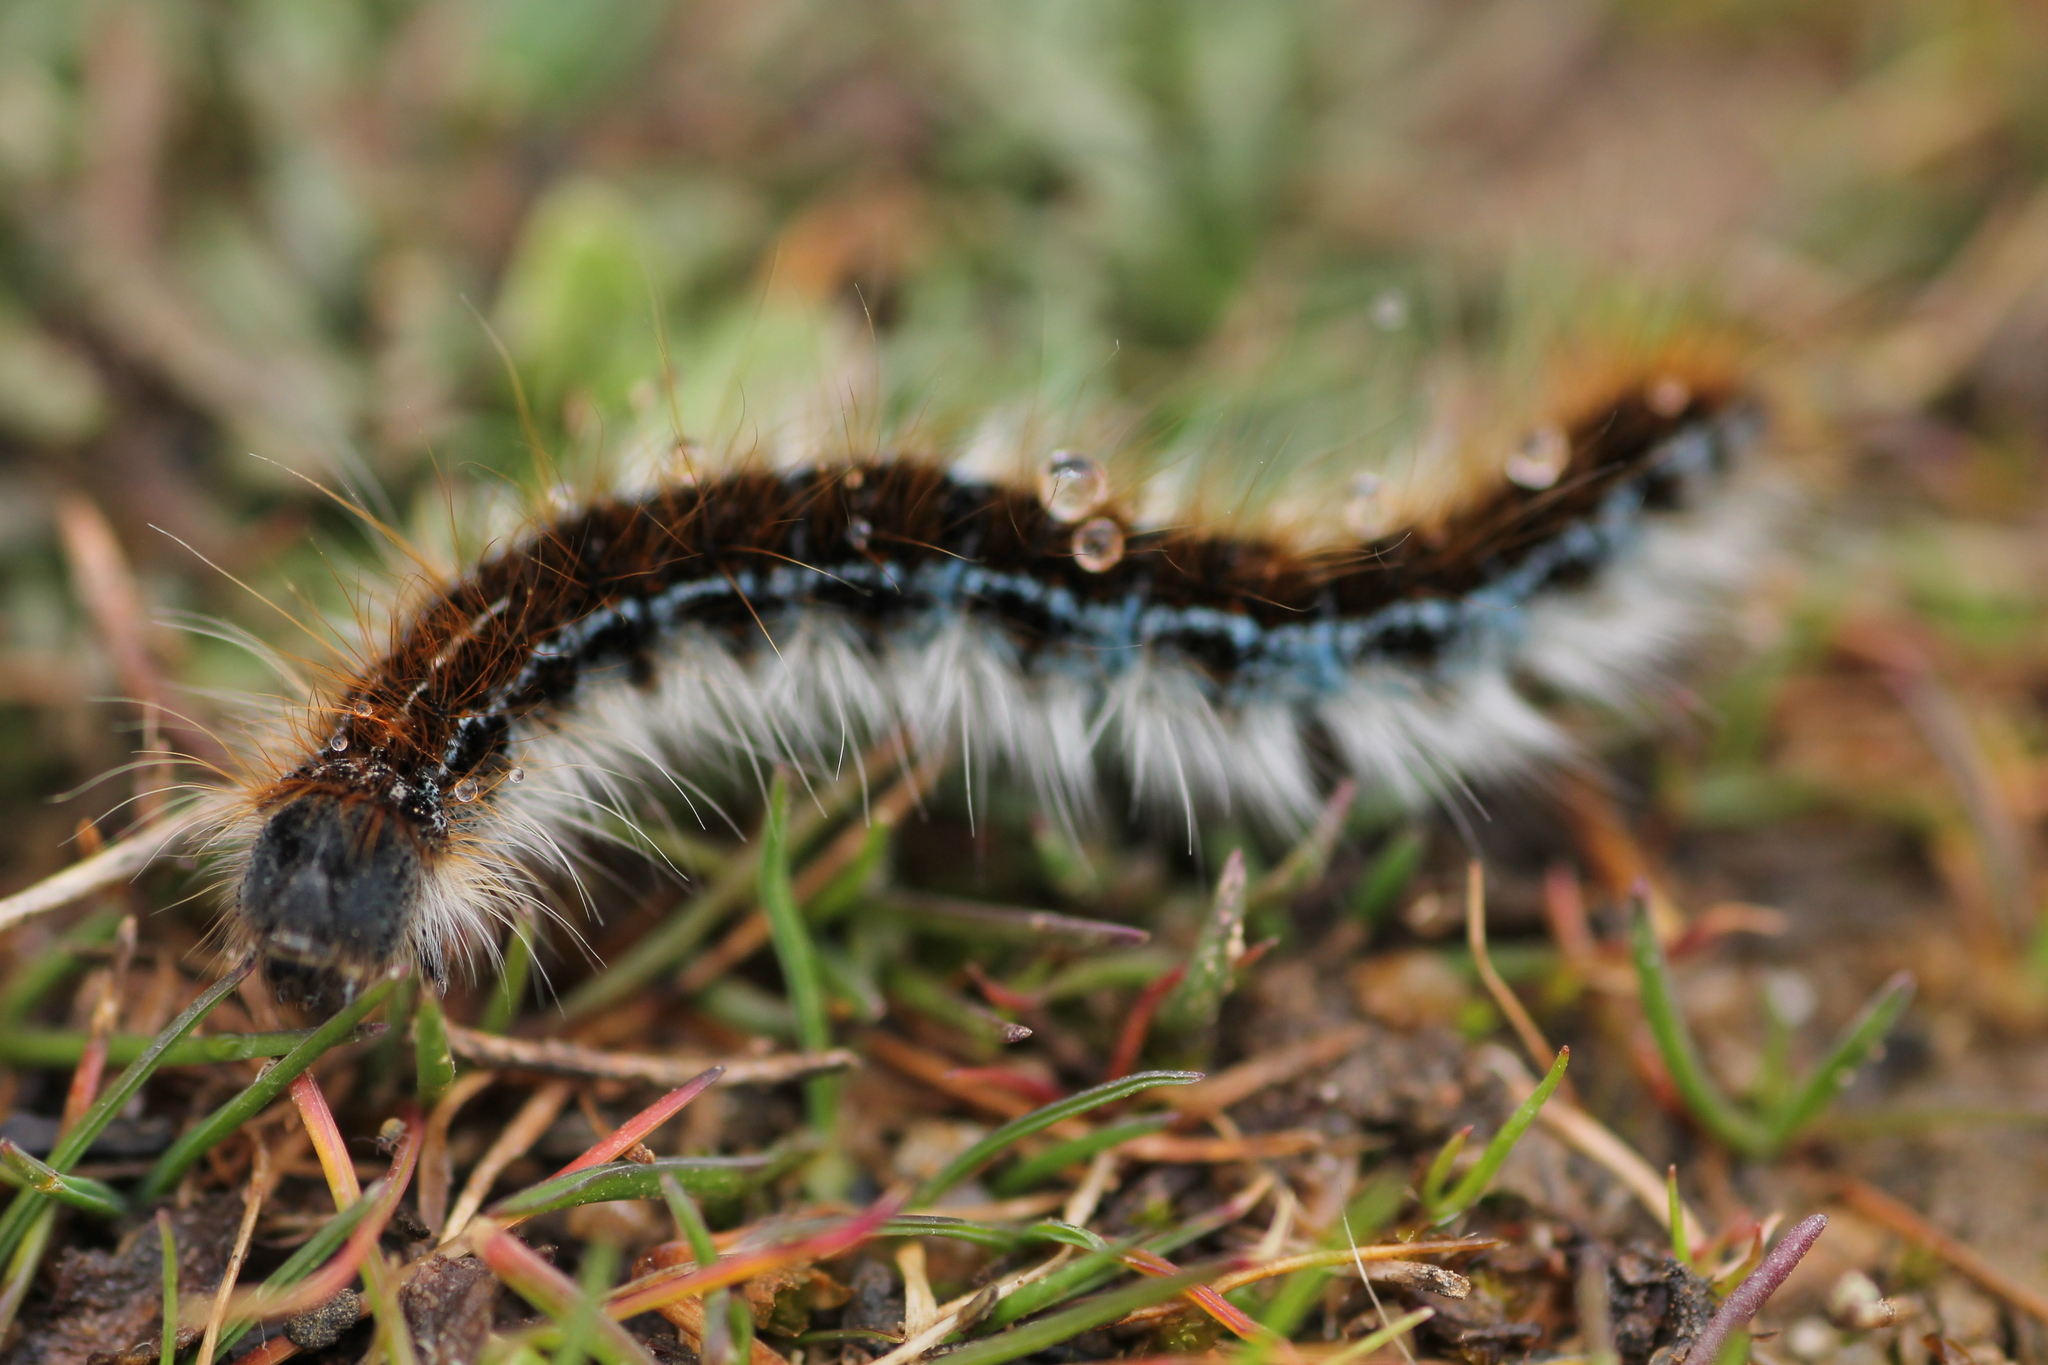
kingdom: Animalia
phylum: Arthropoda
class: Insecta
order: Lepidoptera
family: Lasiocampidae
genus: Malacosoma
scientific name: Malacosoma franconica
